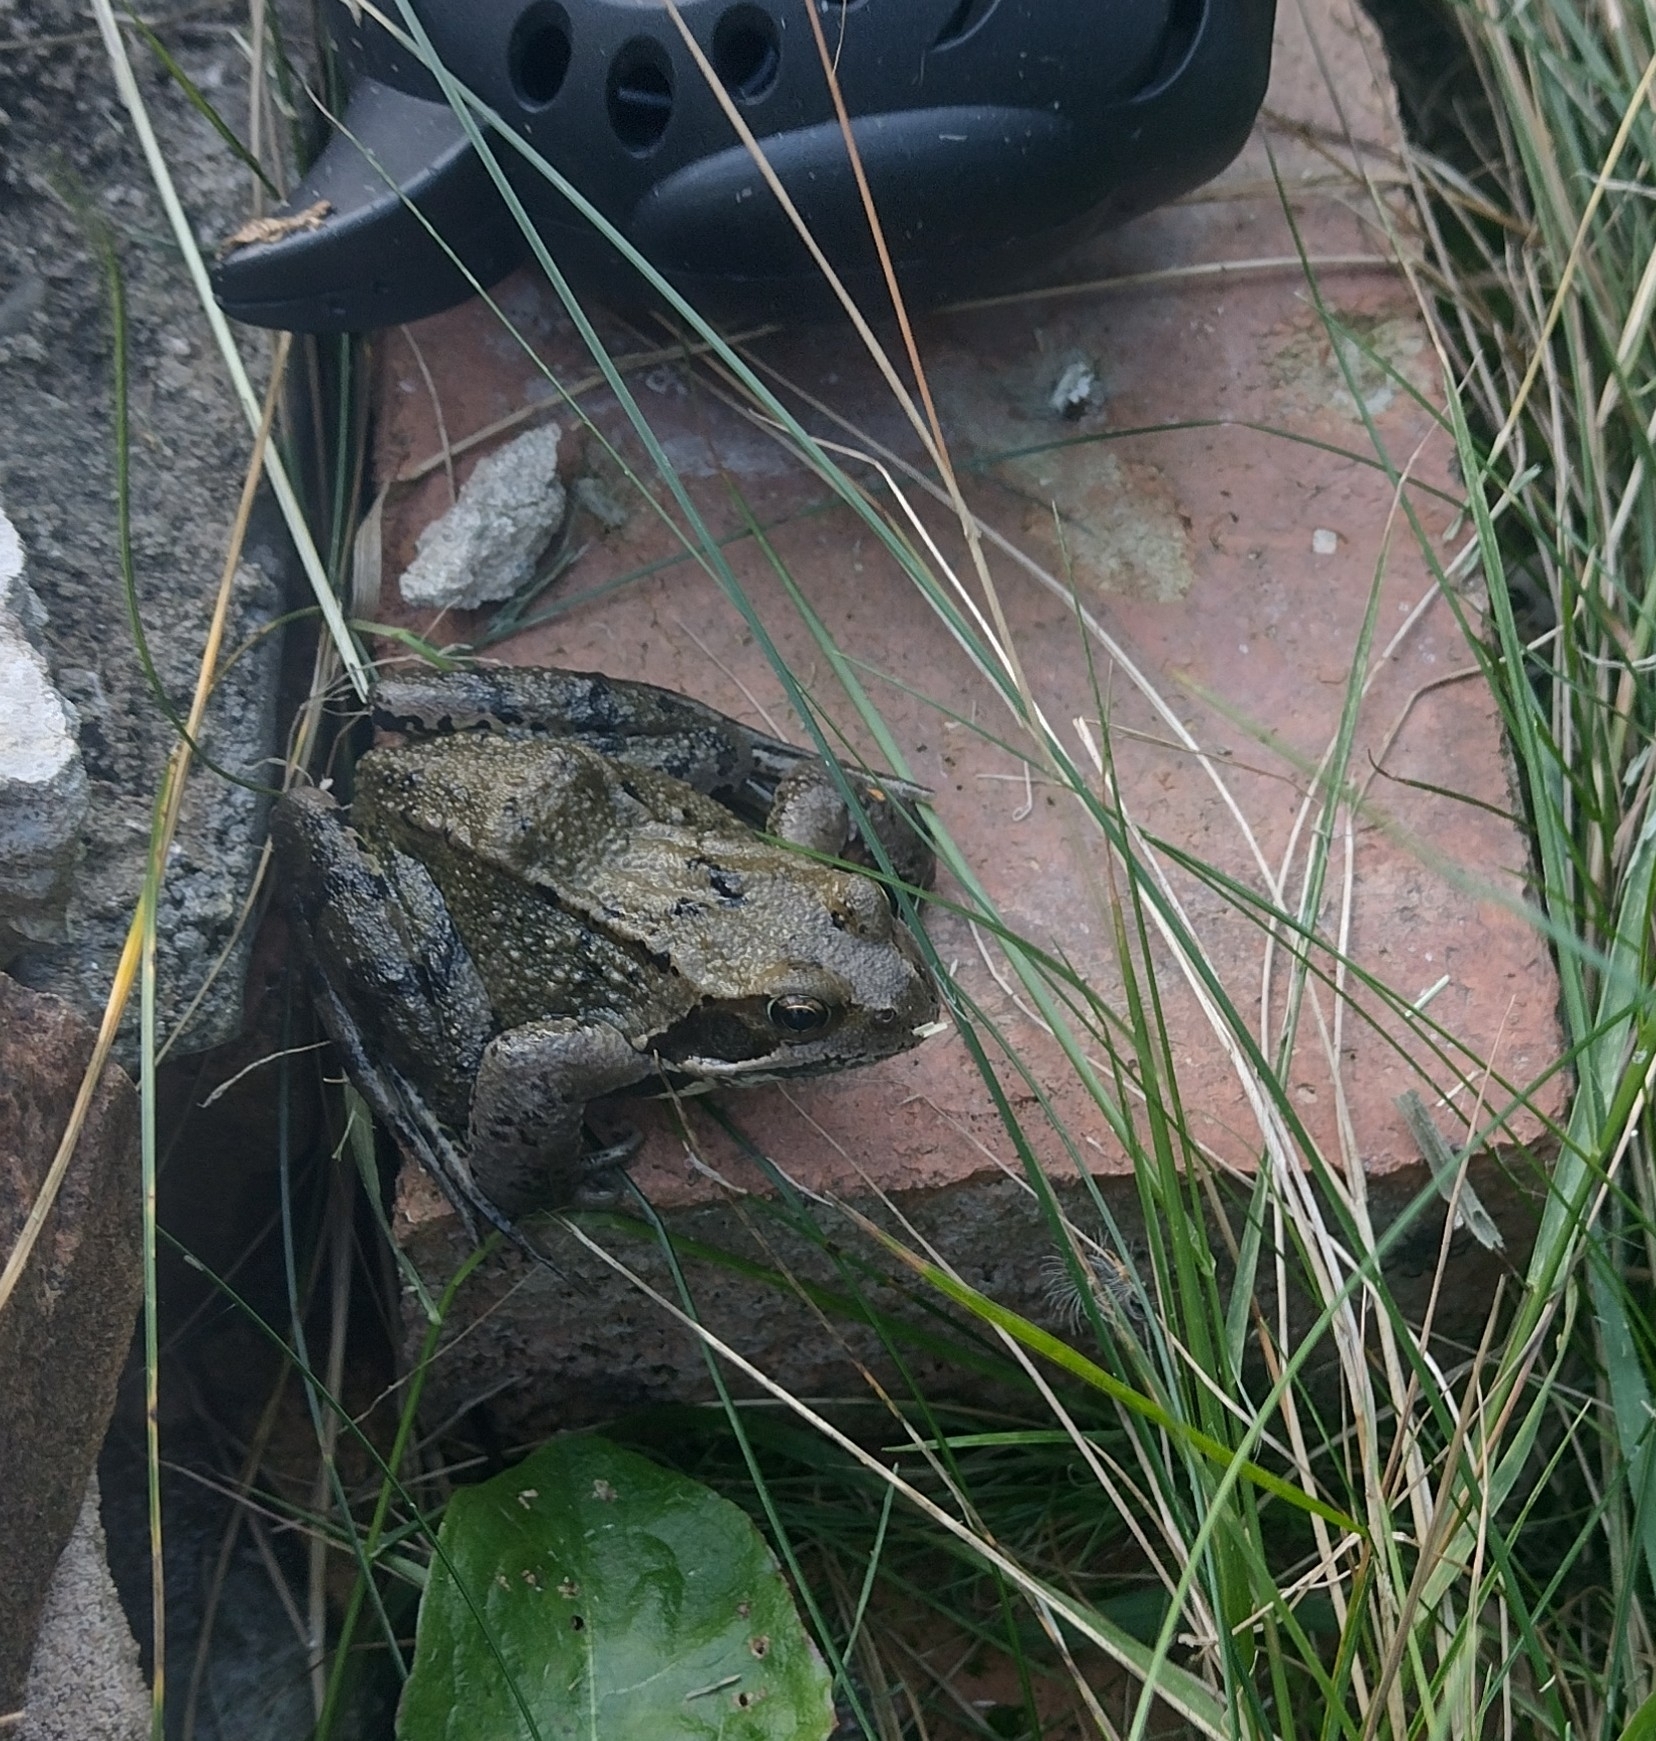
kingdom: Animalia
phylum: Chordata
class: Amphibia
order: Anura
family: Ranidae
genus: Rana
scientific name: Rana temporaria
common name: Common frog
